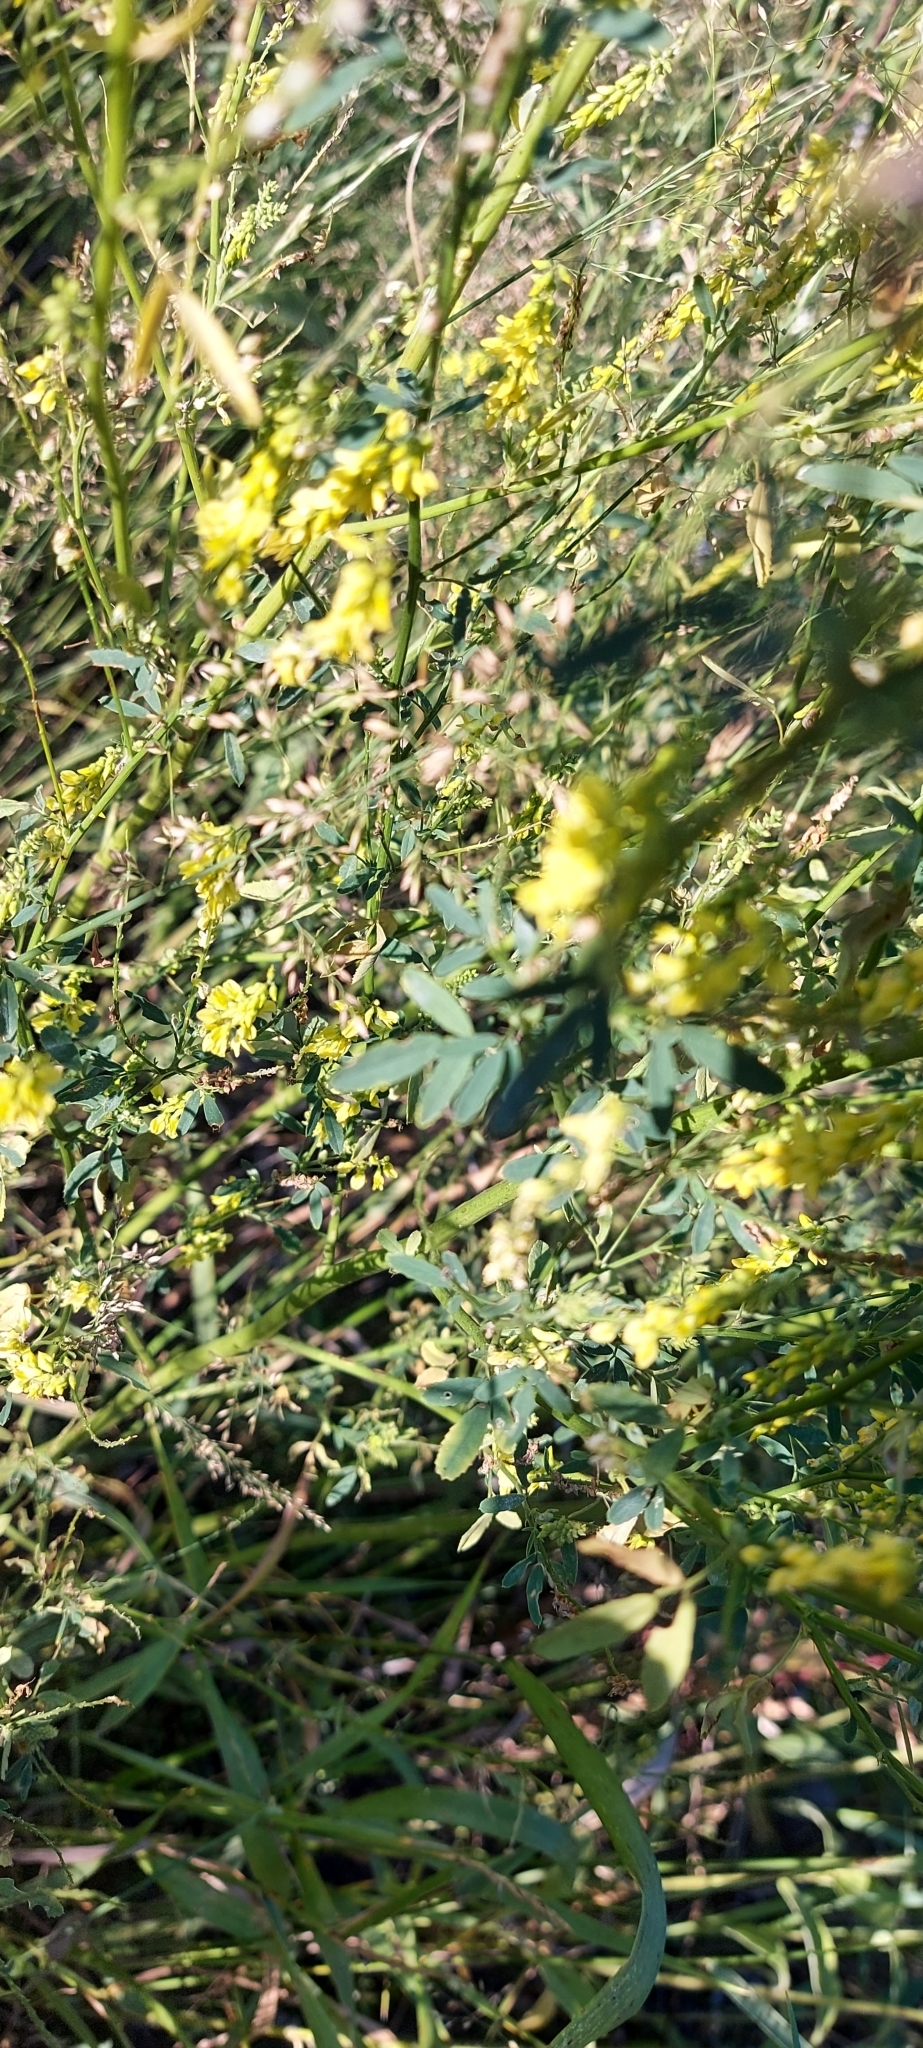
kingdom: Plantae
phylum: Tracheophyta
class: Magnoliopsida
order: Fabales
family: Fabaceae
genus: Melilotus
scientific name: Melilotus officinalis
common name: Sweetclover
